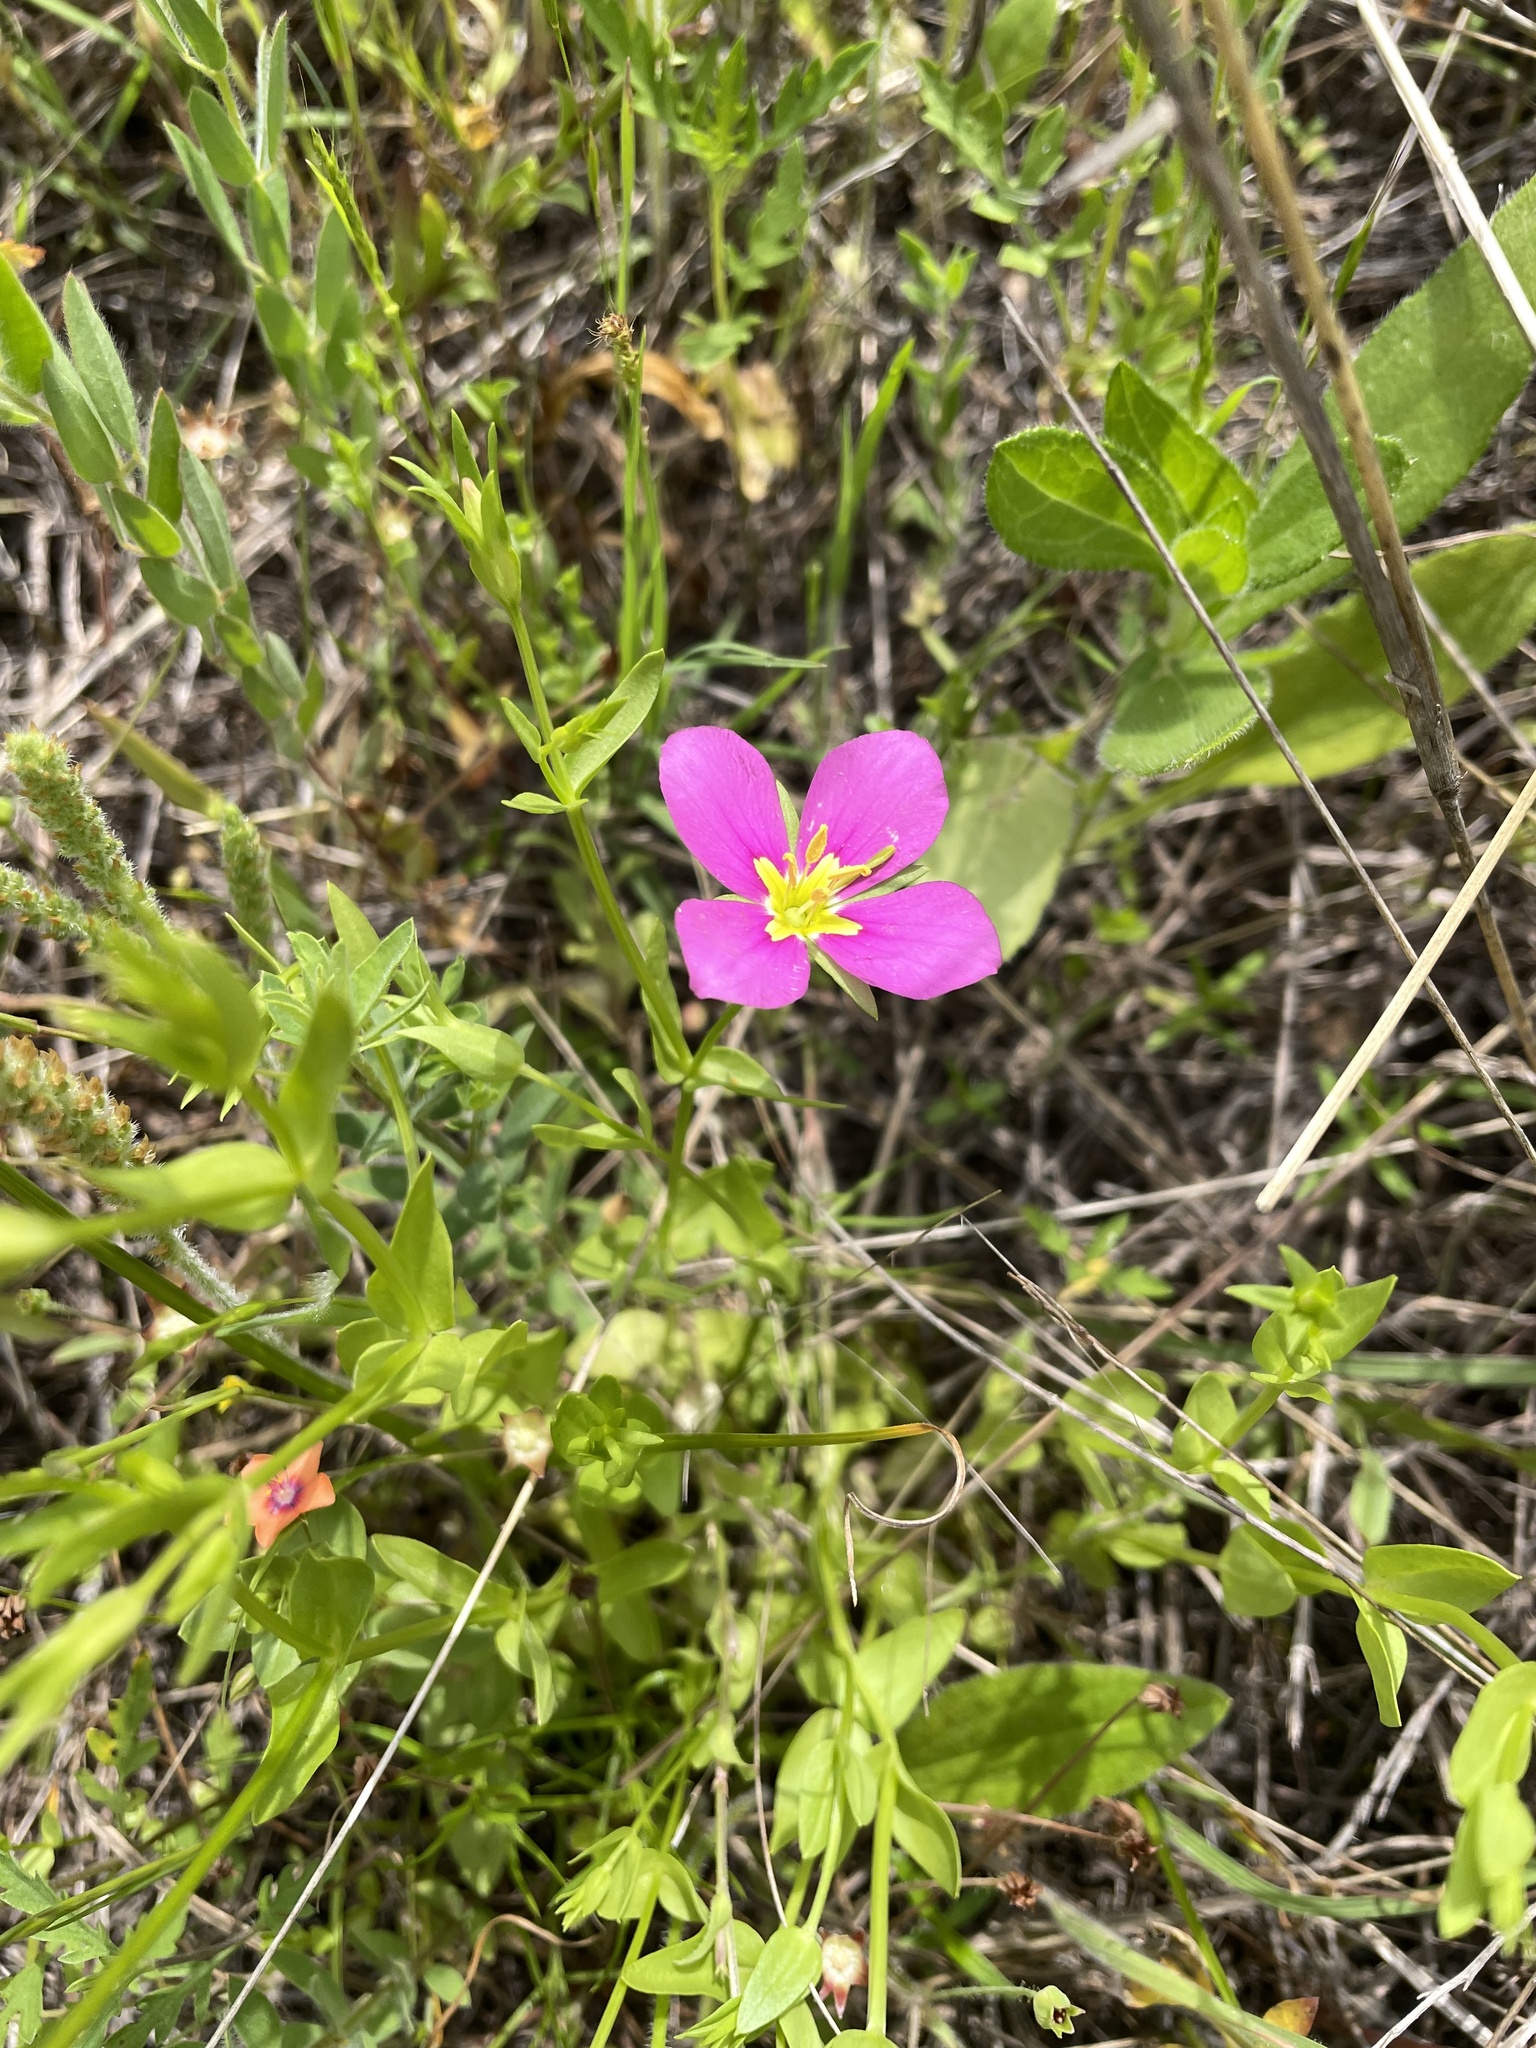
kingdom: Plantae
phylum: Tracheophyta
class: Magnoliopsida
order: Gentianales
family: Gentianaceae
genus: Sabatia
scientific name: Sabatia campestris
